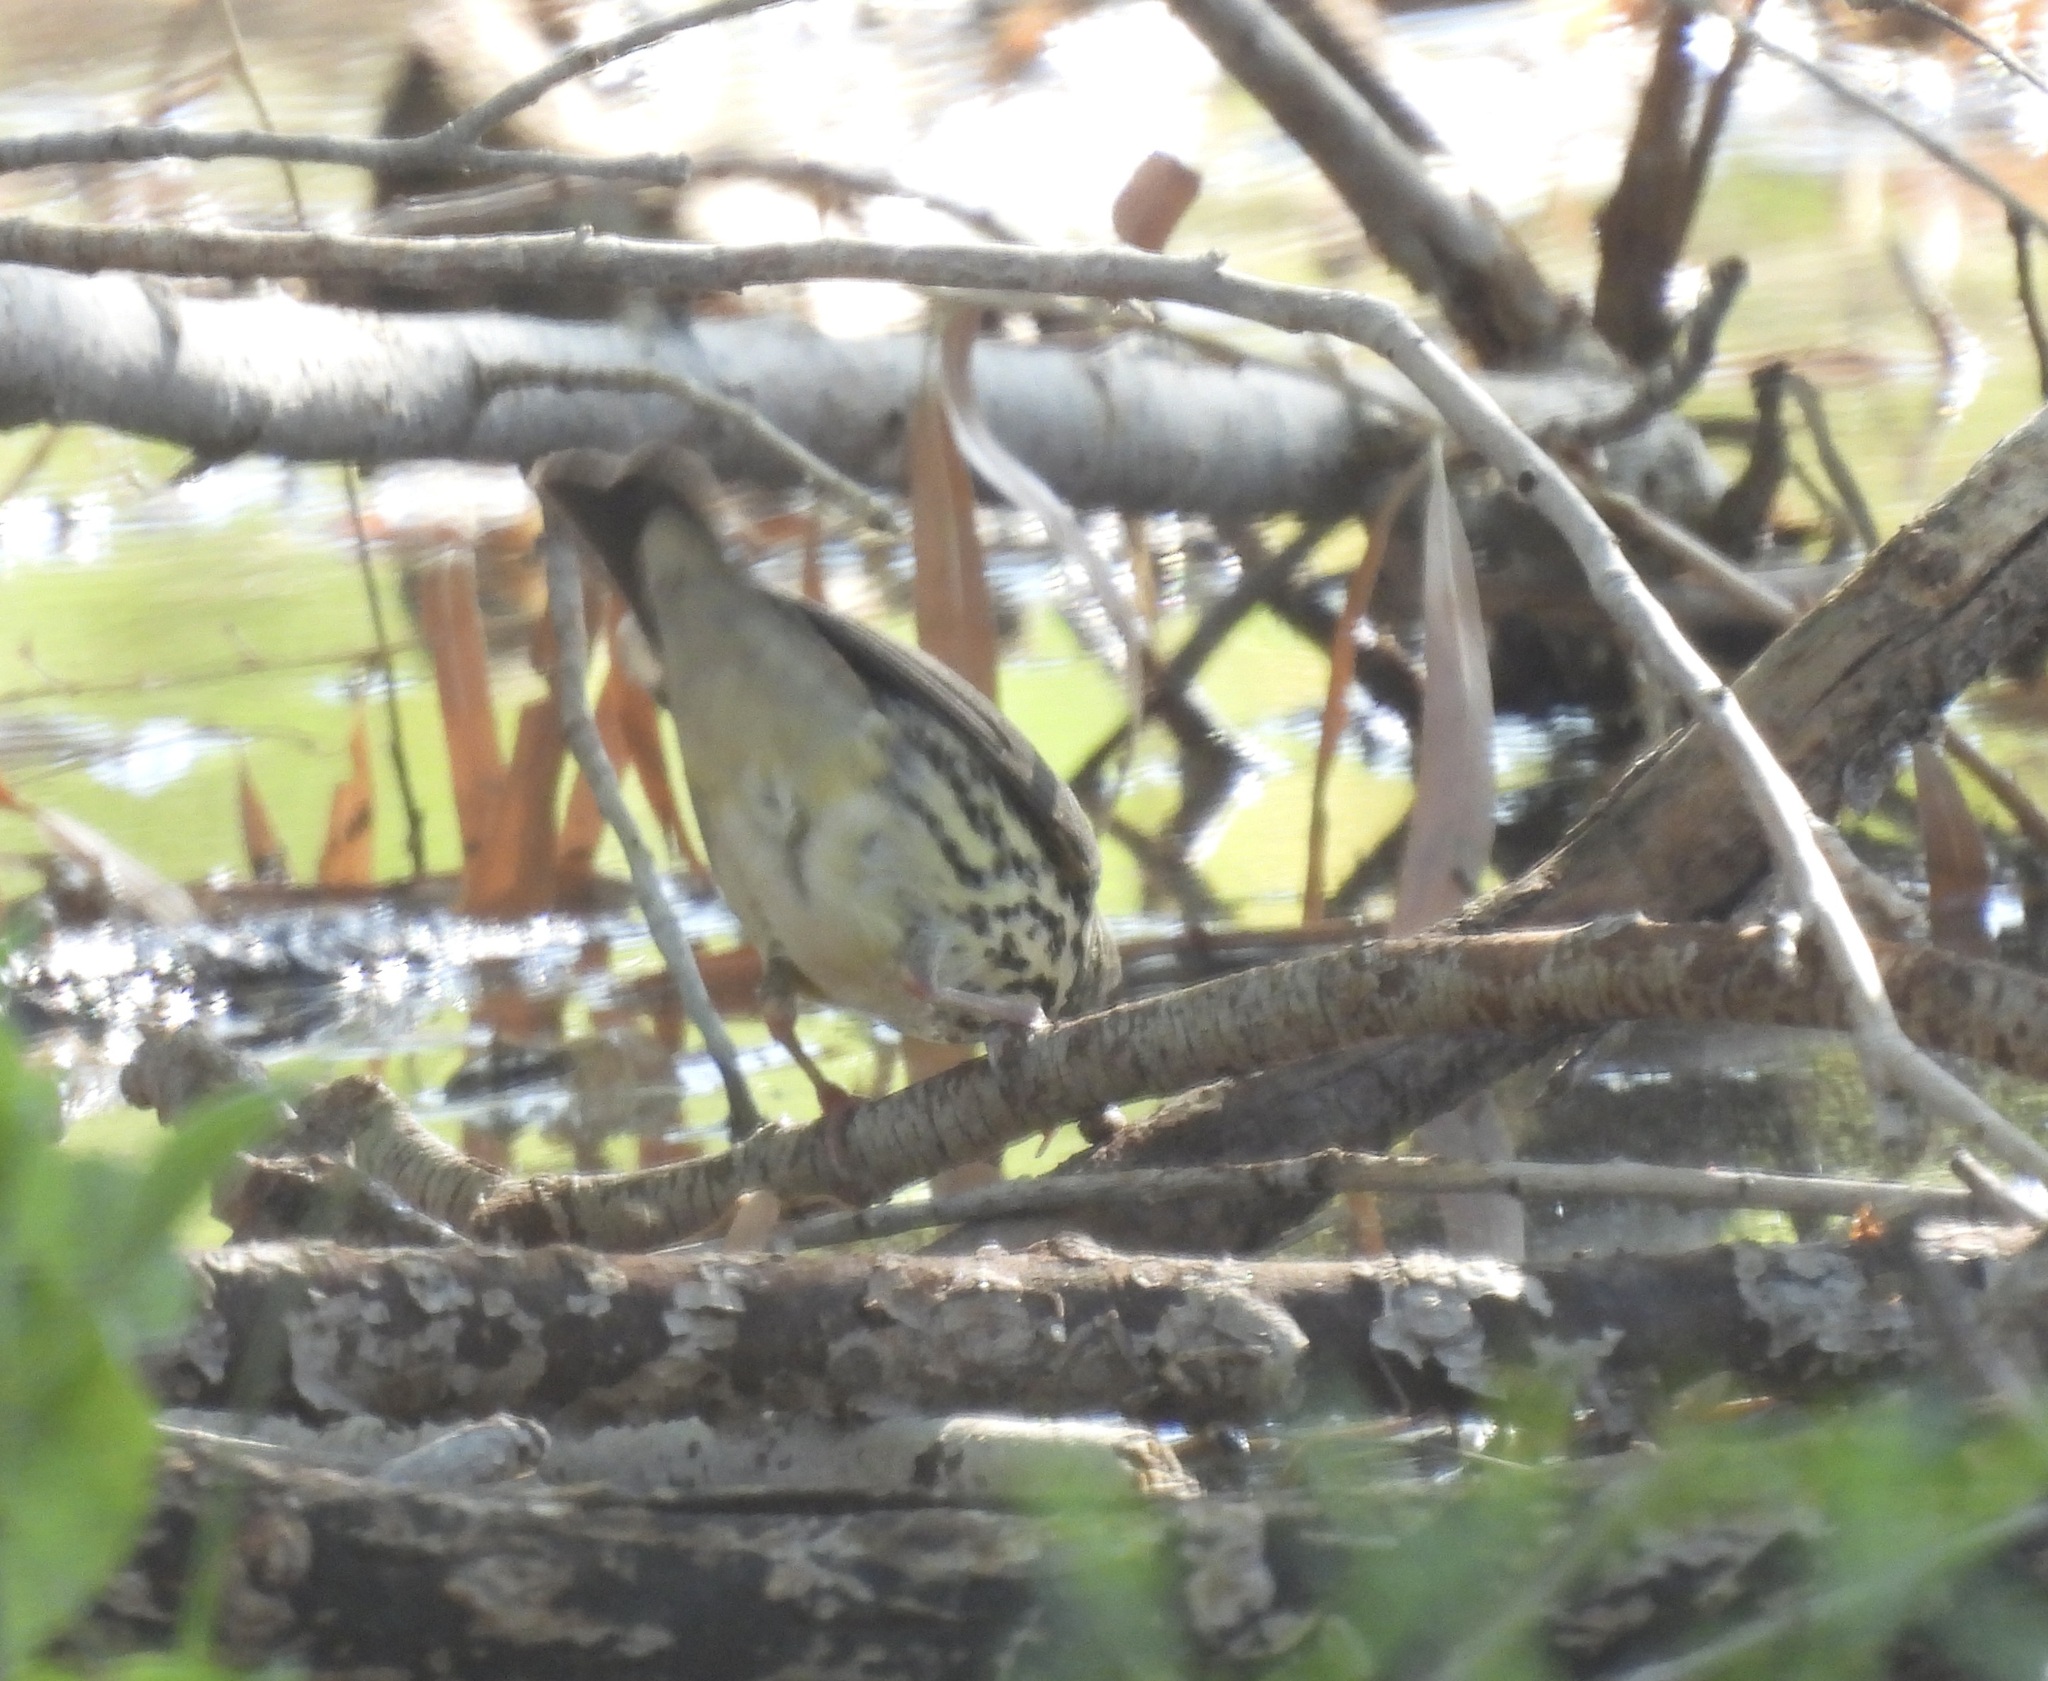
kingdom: Animalia
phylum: Chordata
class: Aves
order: Passeriformes
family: Parulidae
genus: Parkesia
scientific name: Parkesia noveboracensis
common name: Northern waterthrush
